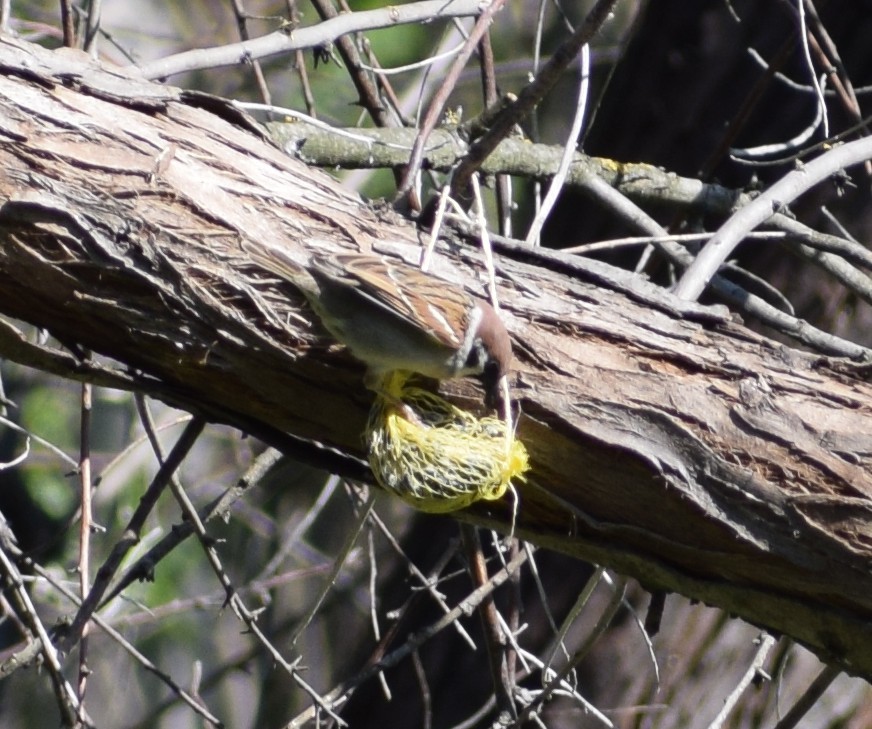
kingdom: Animalia
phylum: Chordata
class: Aves
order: Passeriformes
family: Passeridae
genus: Passer
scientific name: Passer montanus
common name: Eurasian tree sparrow
